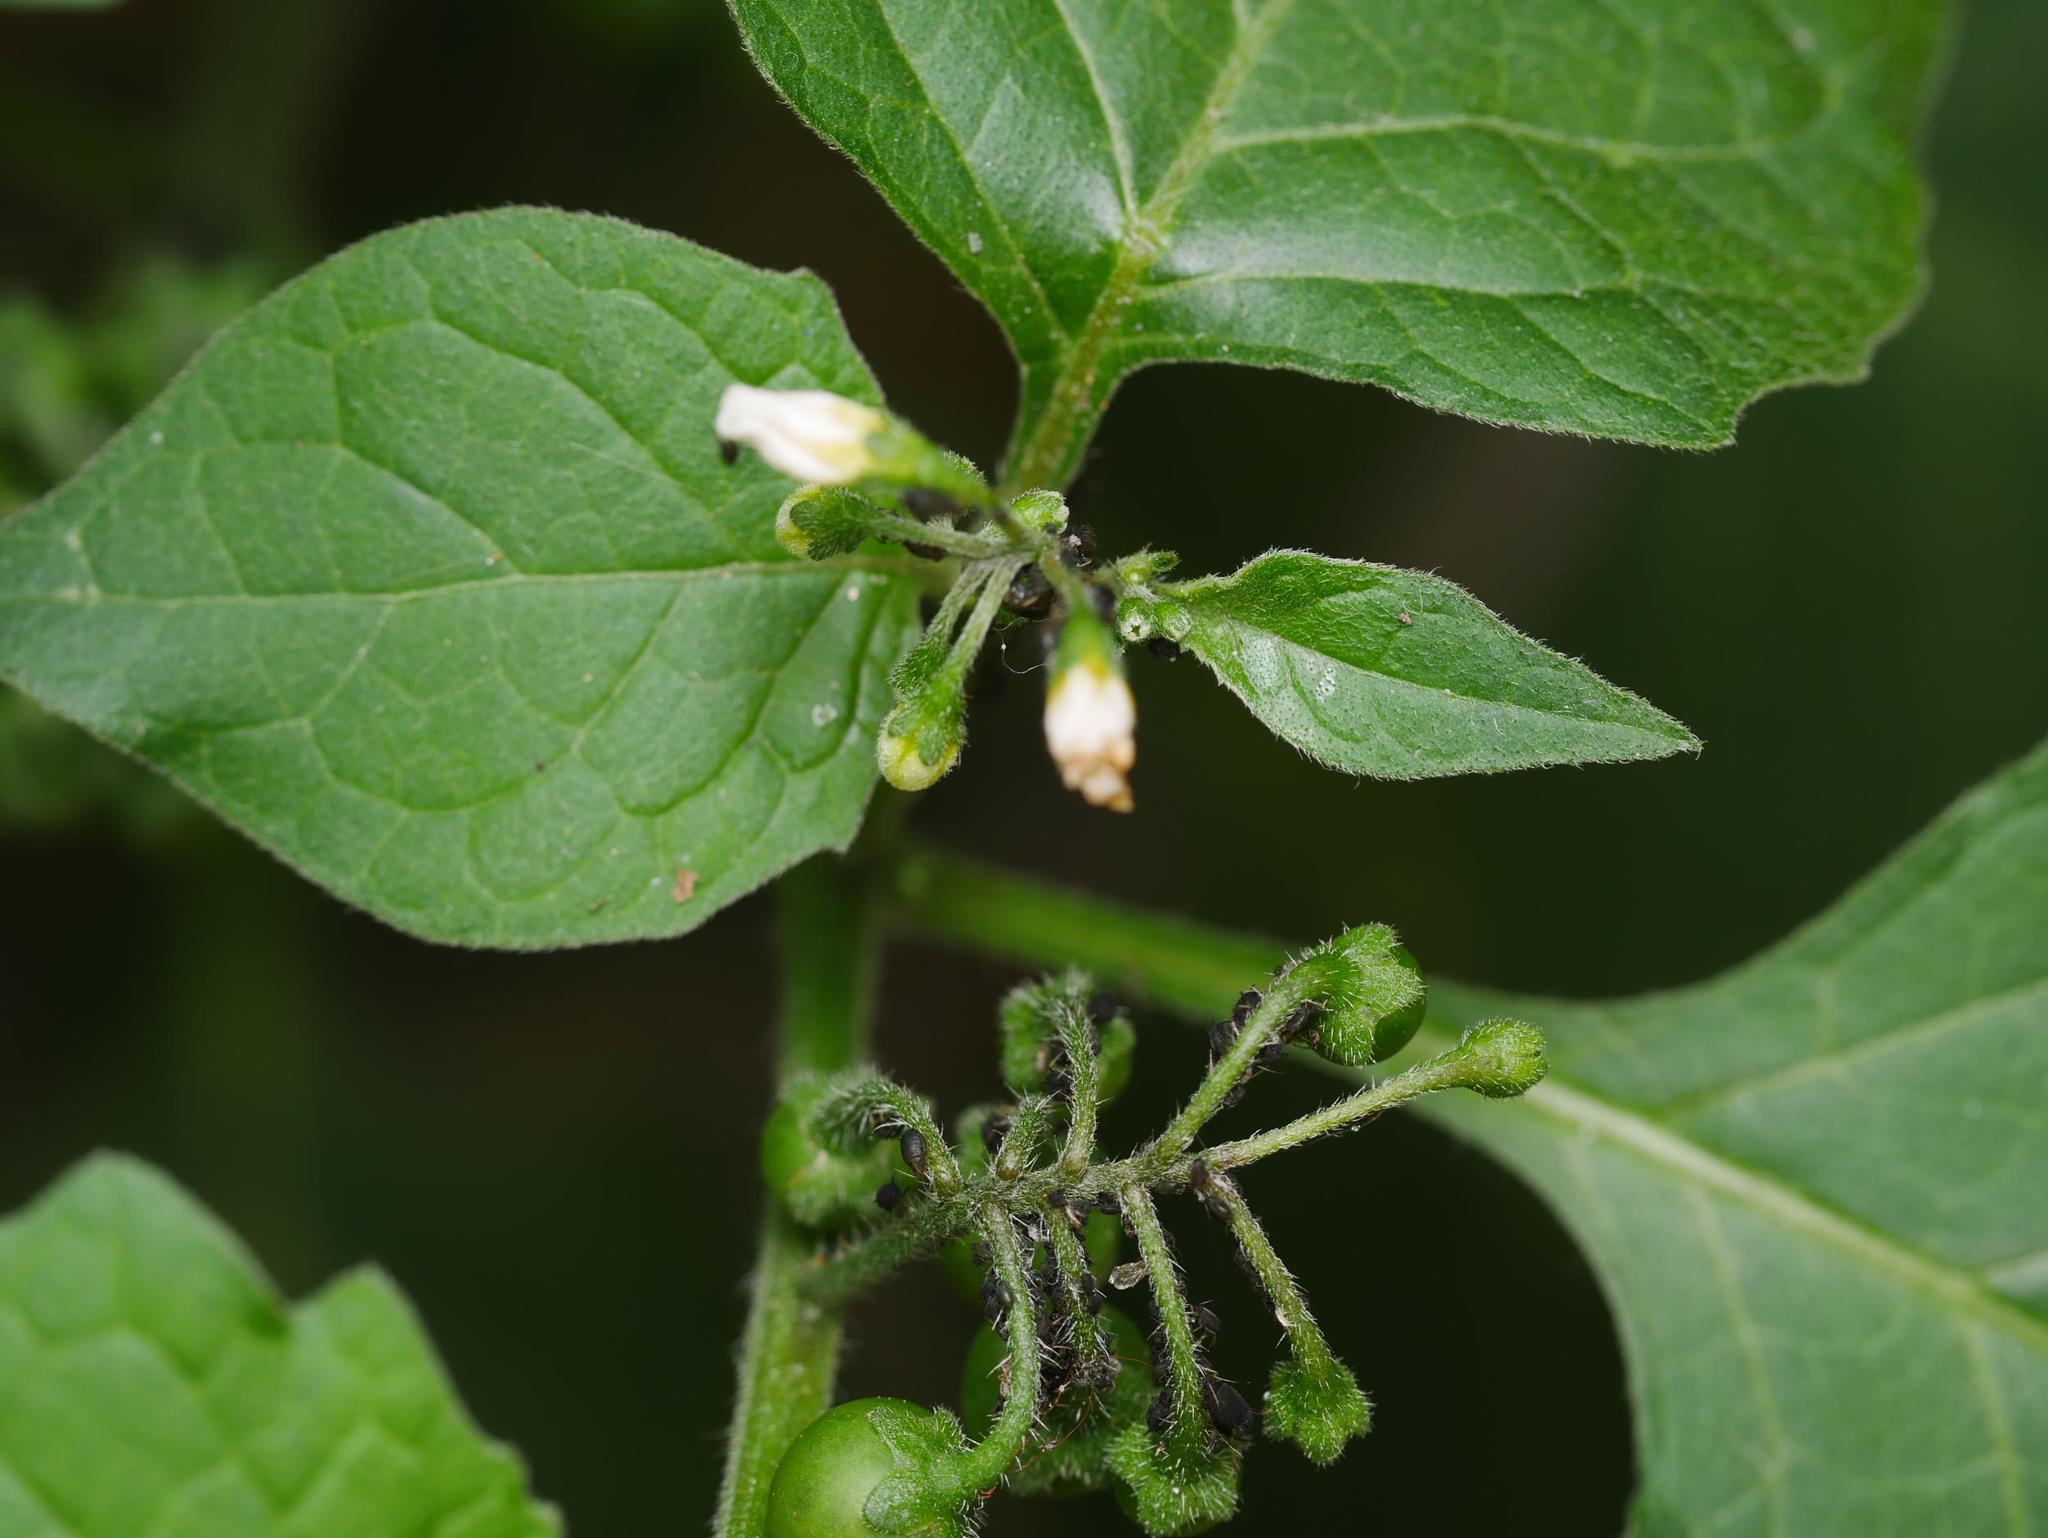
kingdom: Plantae
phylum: Tracheophyta
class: Magnoliopsida
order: Solanales
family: Solanaceae
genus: Solanum
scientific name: Solanum nigrum
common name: Black nightshade
